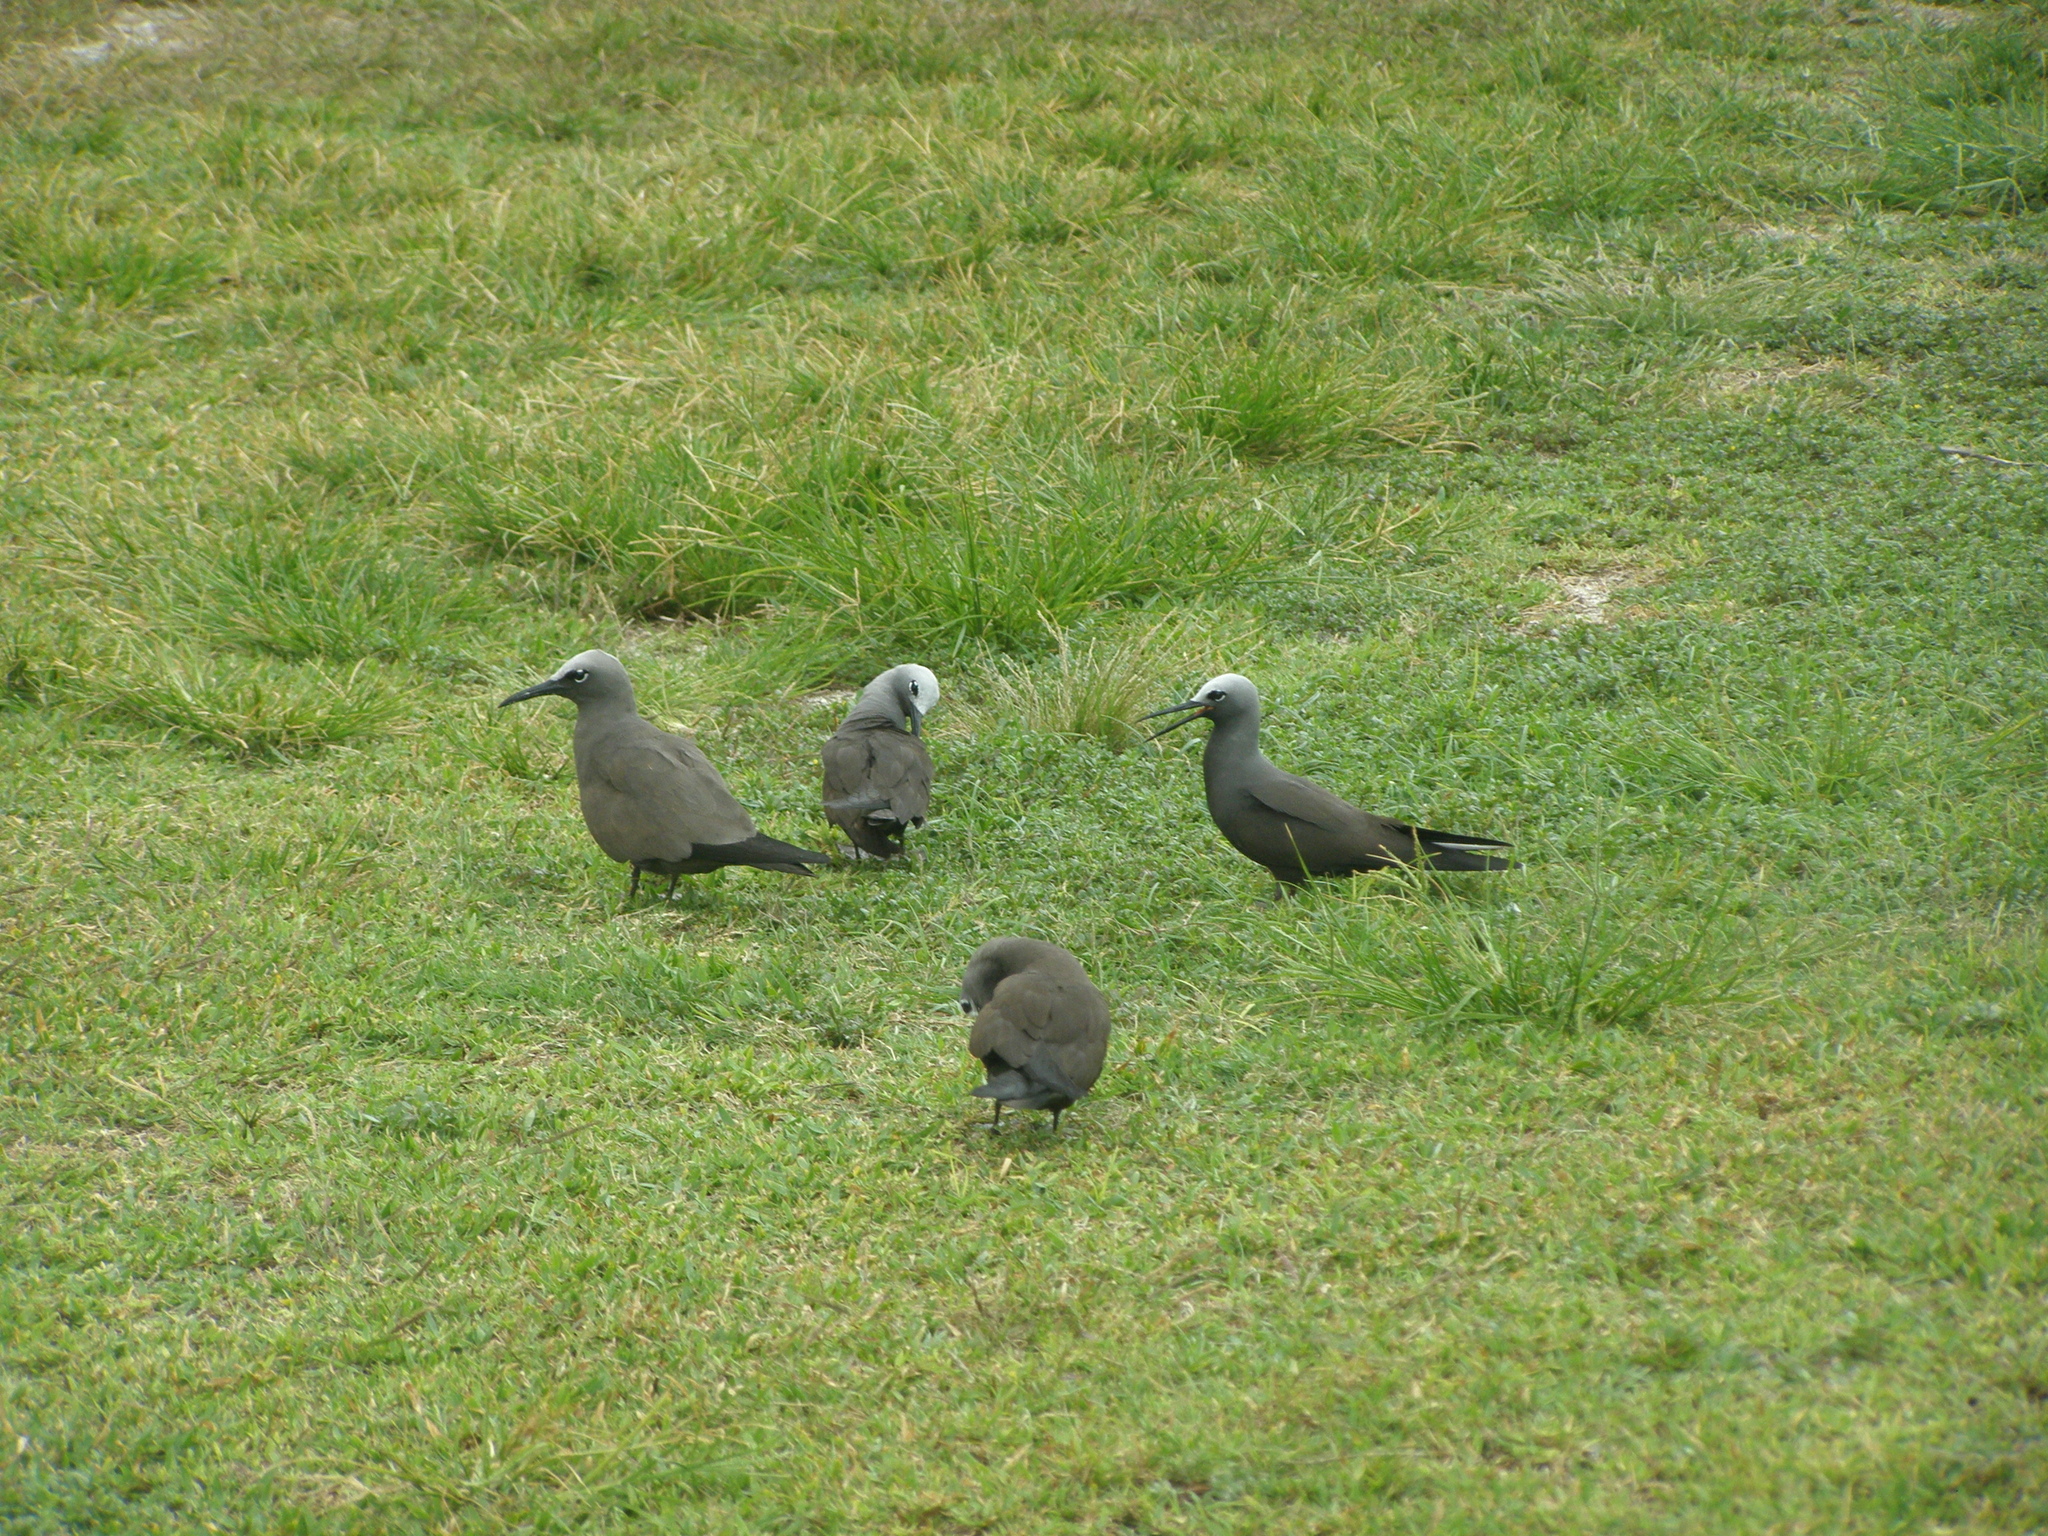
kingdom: Animalia
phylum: Chordata
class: Aves
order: Charadriiformes
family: Laridae
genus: Anous
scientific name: Anous stolidus
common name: Brown noddy
